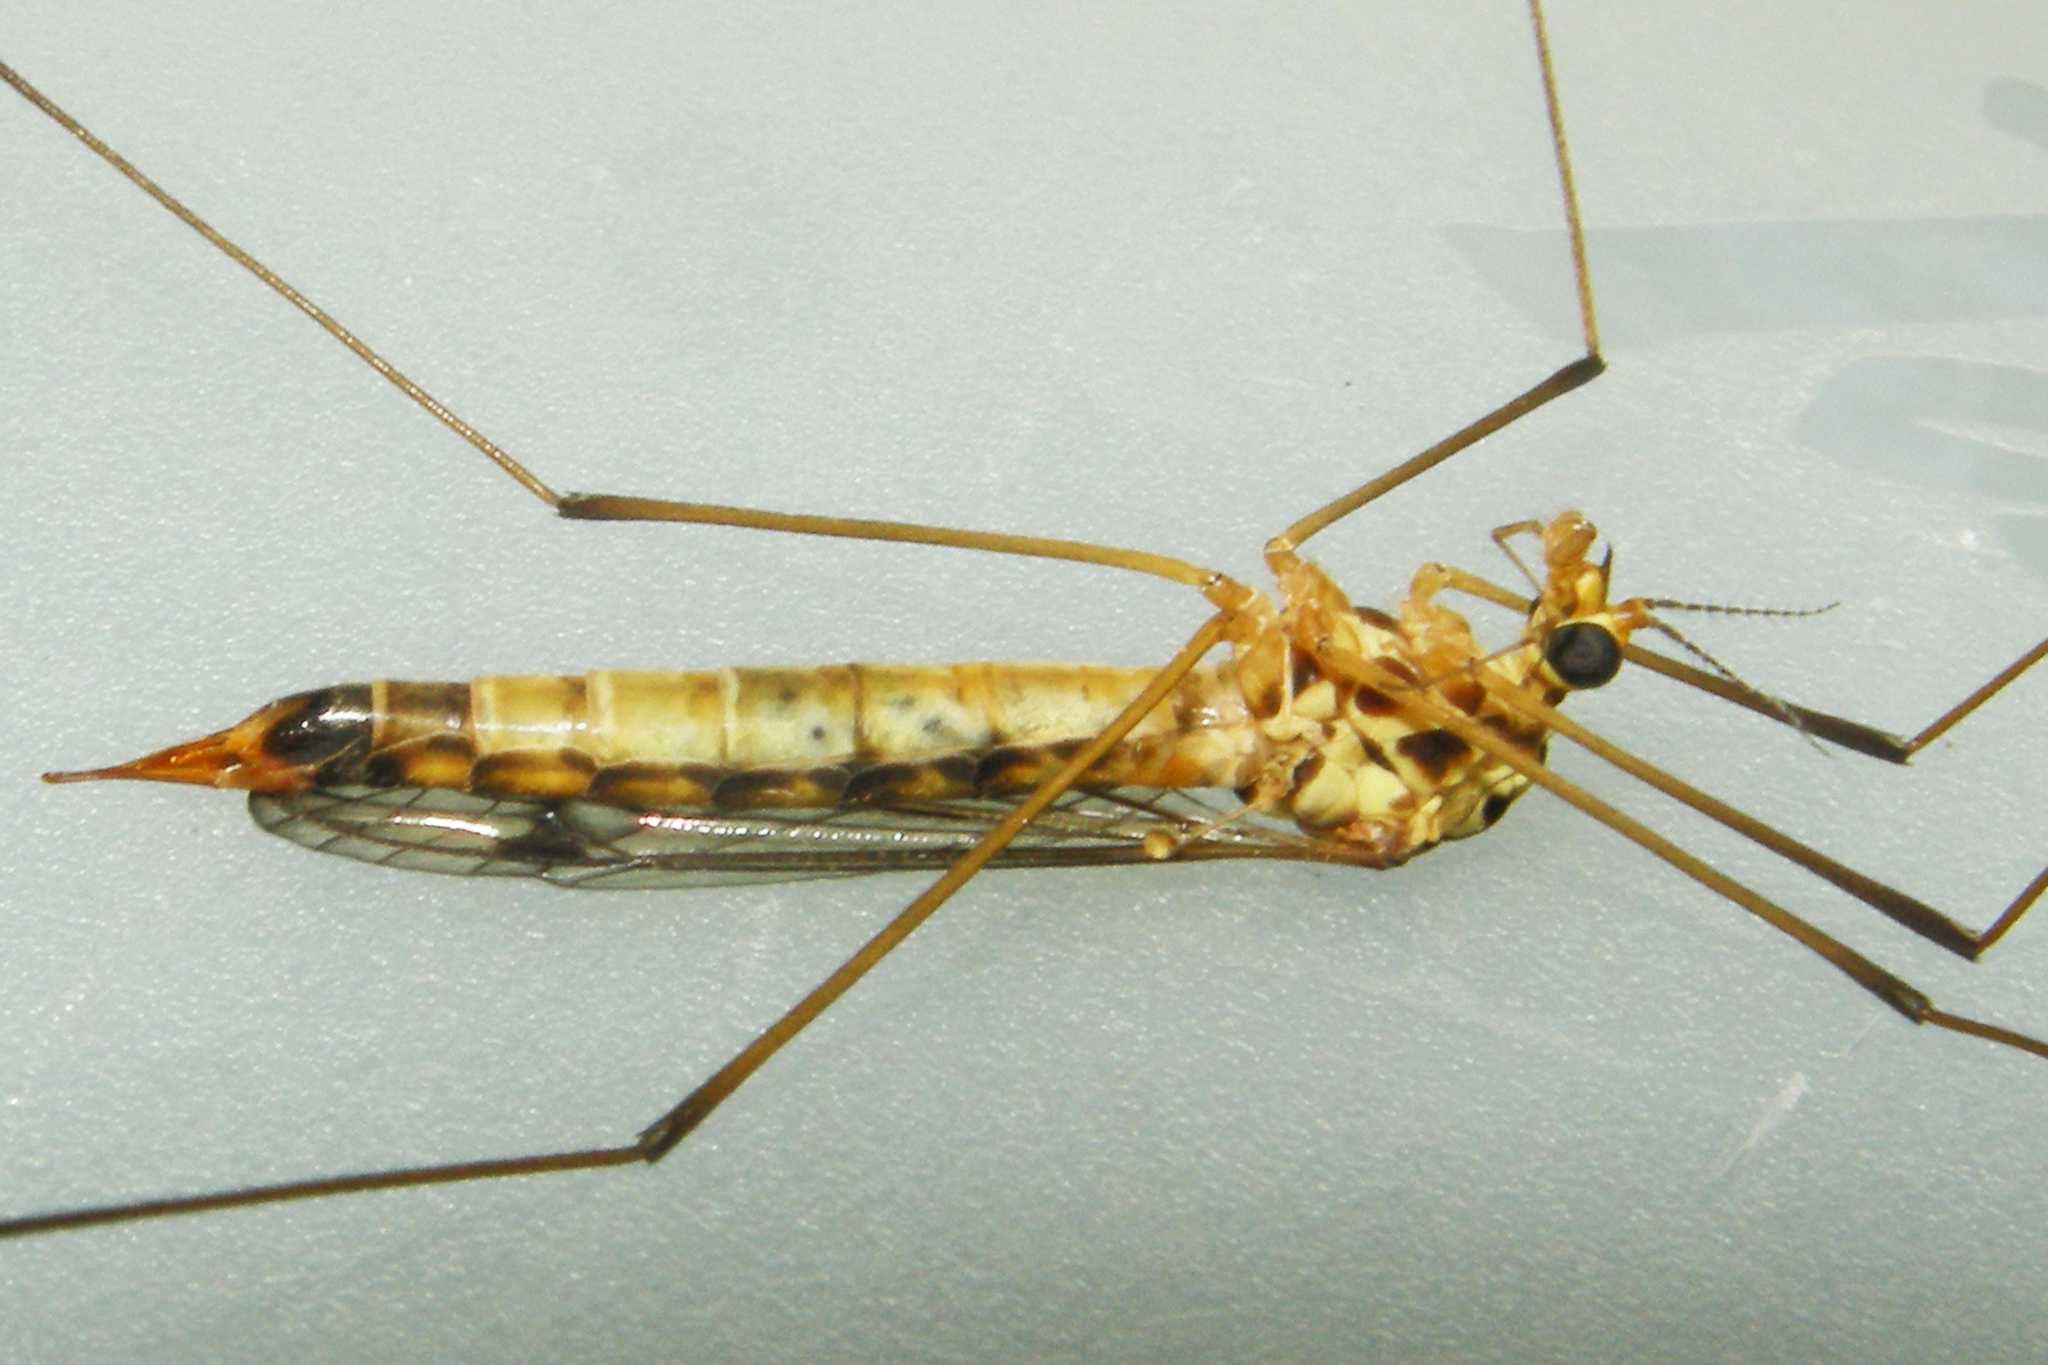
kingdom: Animalia
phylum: Arthropoda
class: Insecta
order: Diptera
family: Tipulidae
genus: Nephrotoma
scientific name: Nephrotoma alterna
